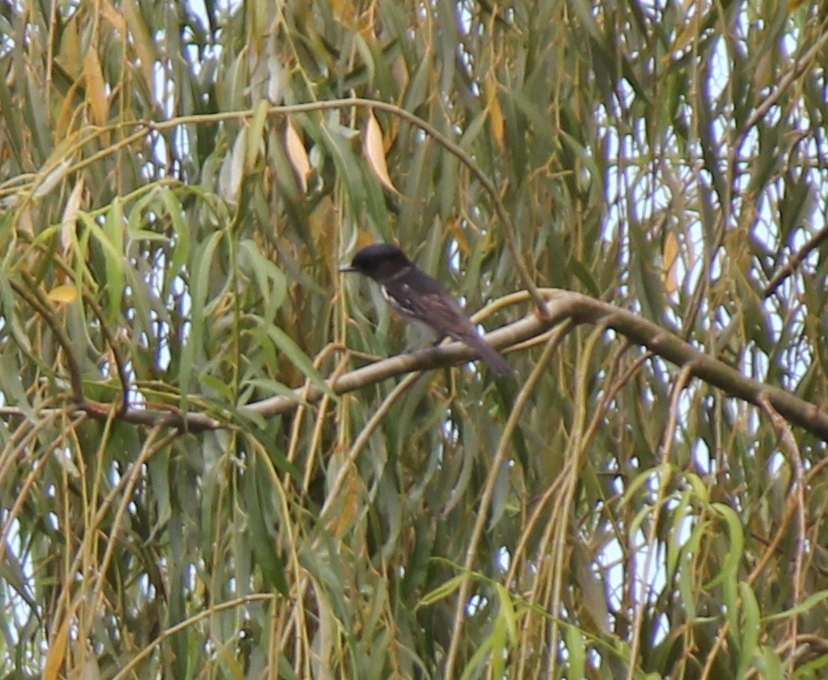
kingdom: Animalia
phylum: Chordata
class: Aves
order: Passeriformes
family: Cotingidae
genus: Pachyramphus
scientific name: Pachyramphus polychopterus
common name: White-winged becard
